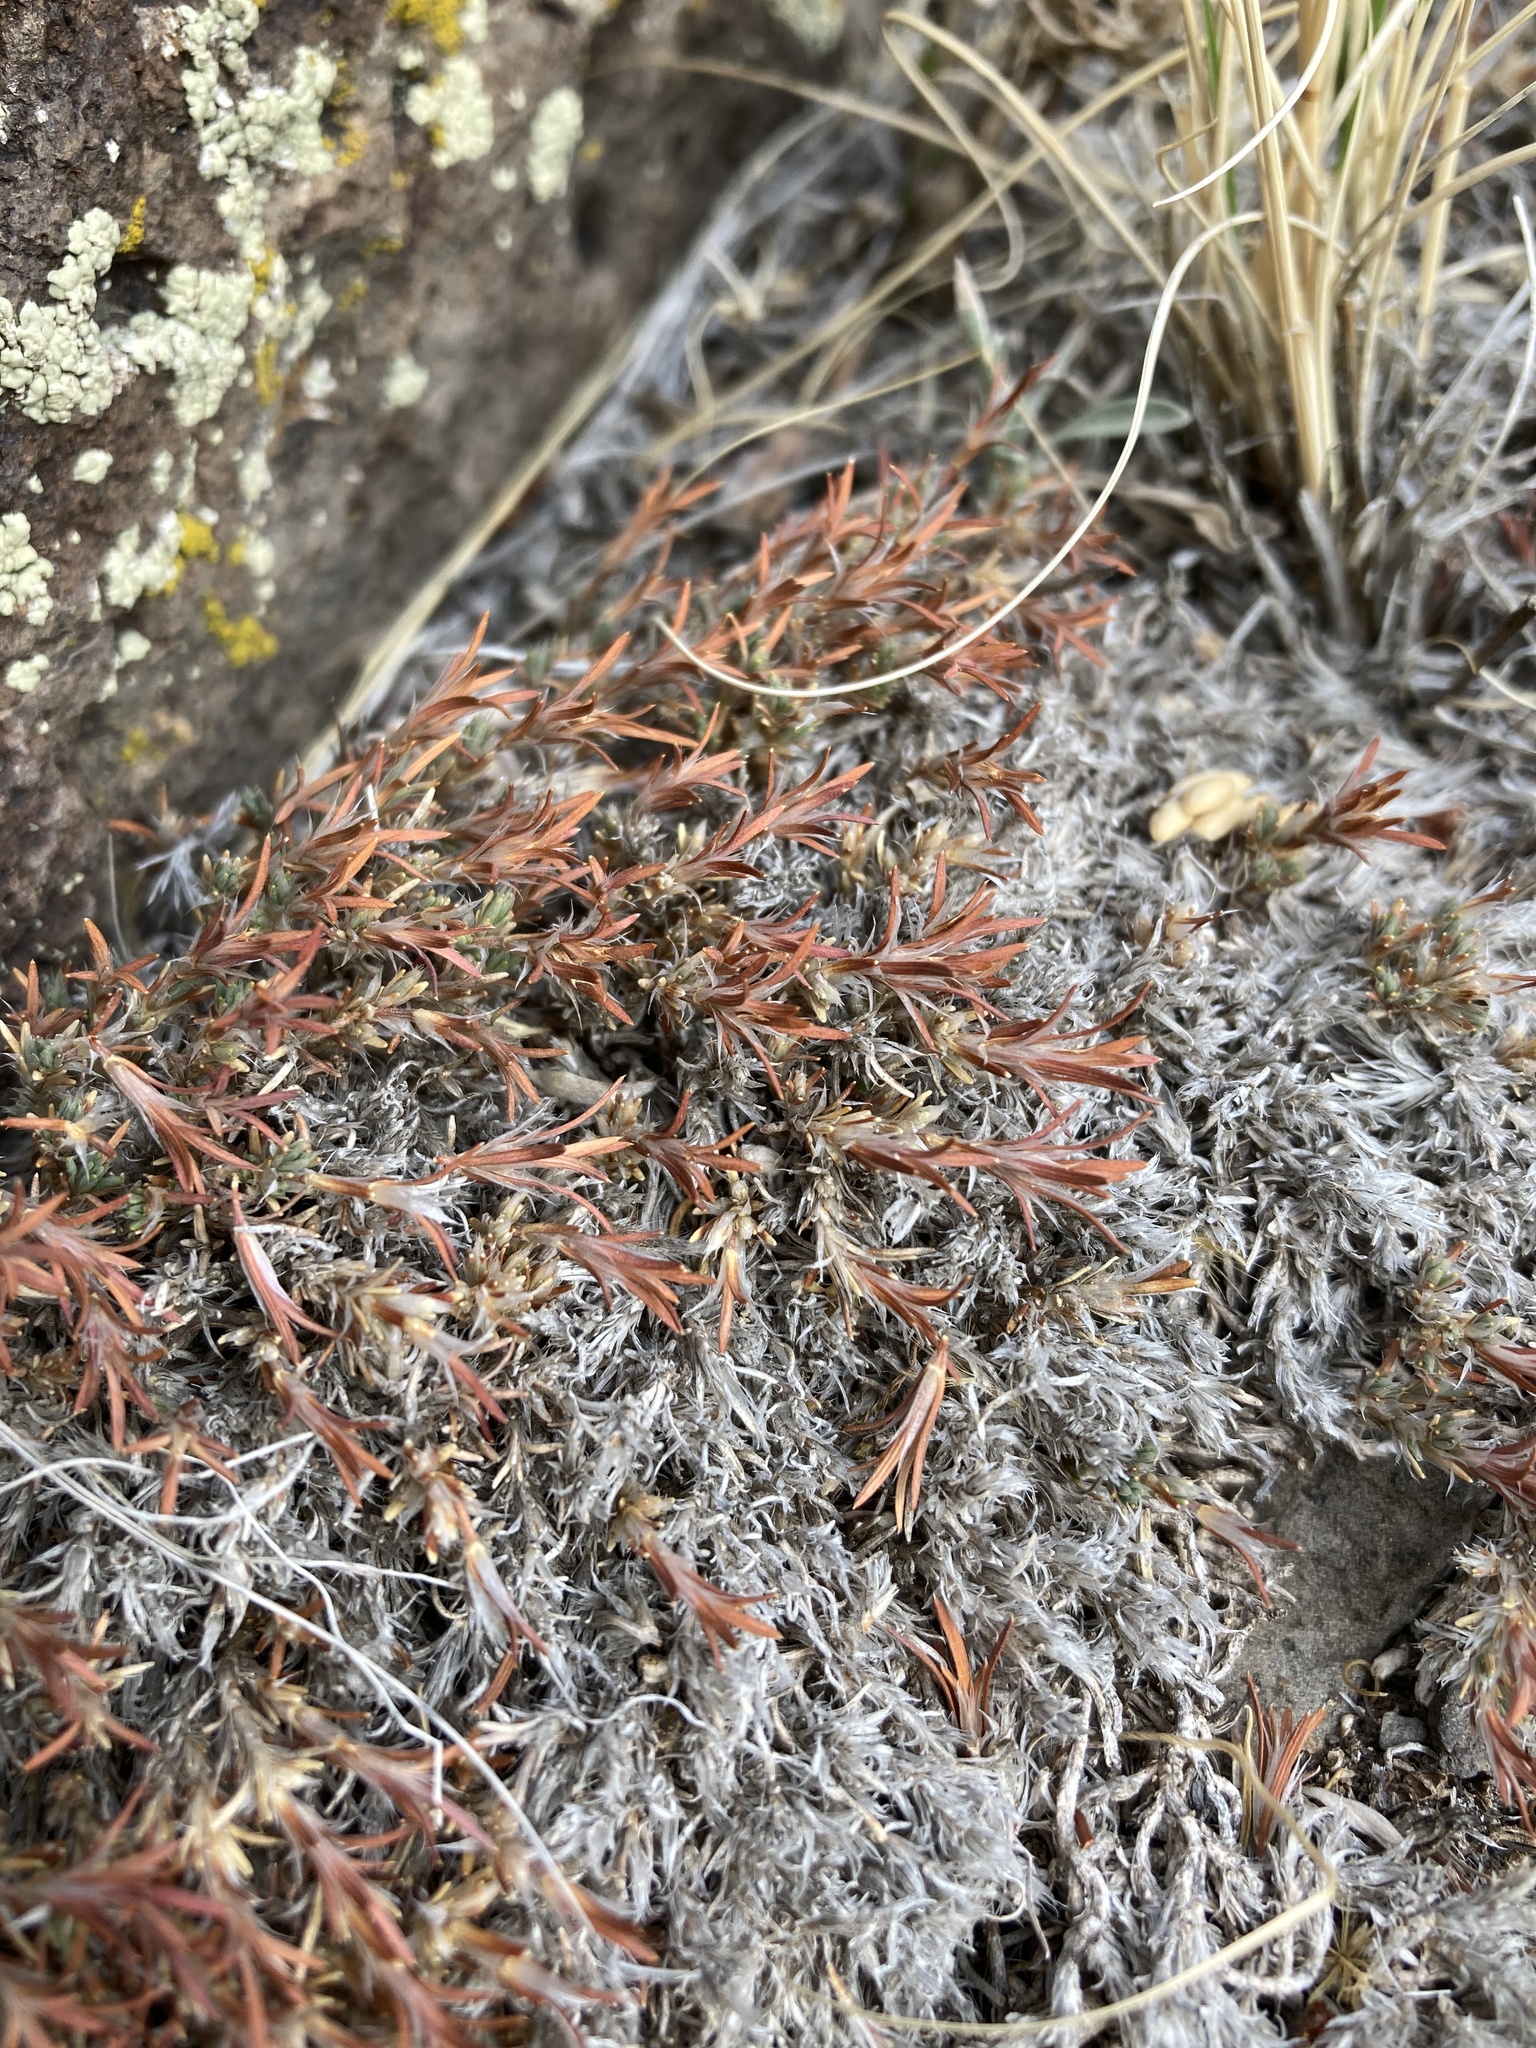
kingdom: Plantae
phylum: Tracheophyta
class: Magnoliopsida
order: Caryophyllales
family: Caryophyllaceae
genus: Paronychia
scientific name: Paronychia sessiliflora
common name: Creeping nailwort
